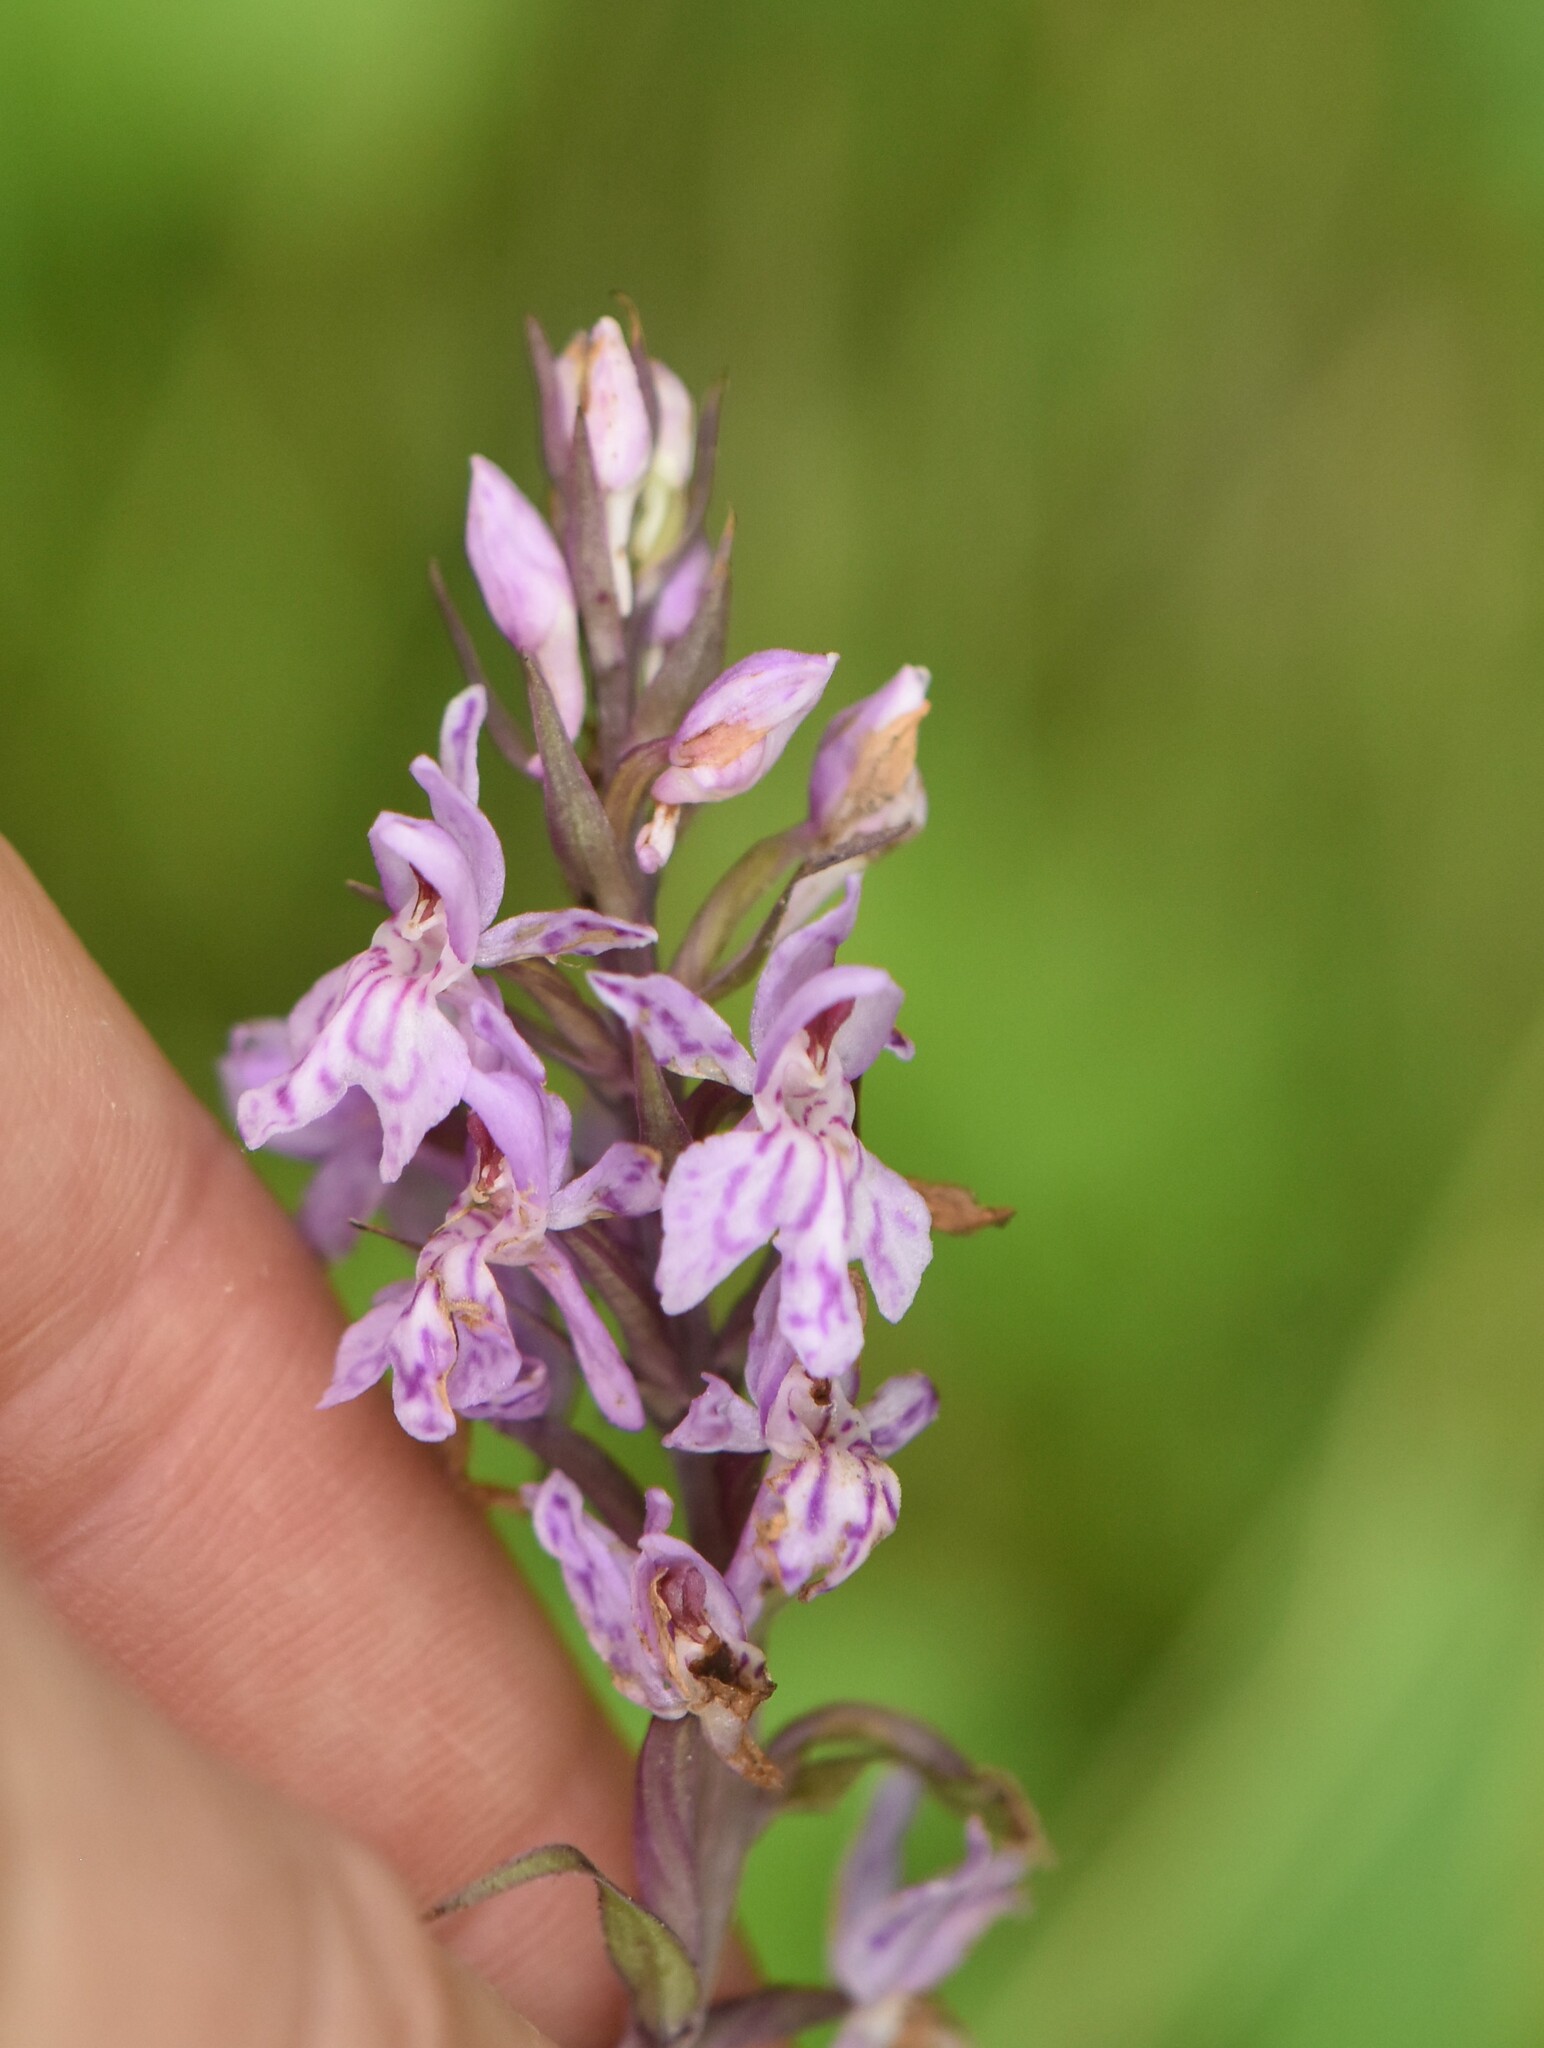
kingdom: Plantae
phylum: Tracheophyta
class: Liliopsida
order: Asparagales
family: Orchidaceae
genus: Dactylorhiza
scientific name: Dactylorhiza maculata
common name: Heath spotted-orchid
